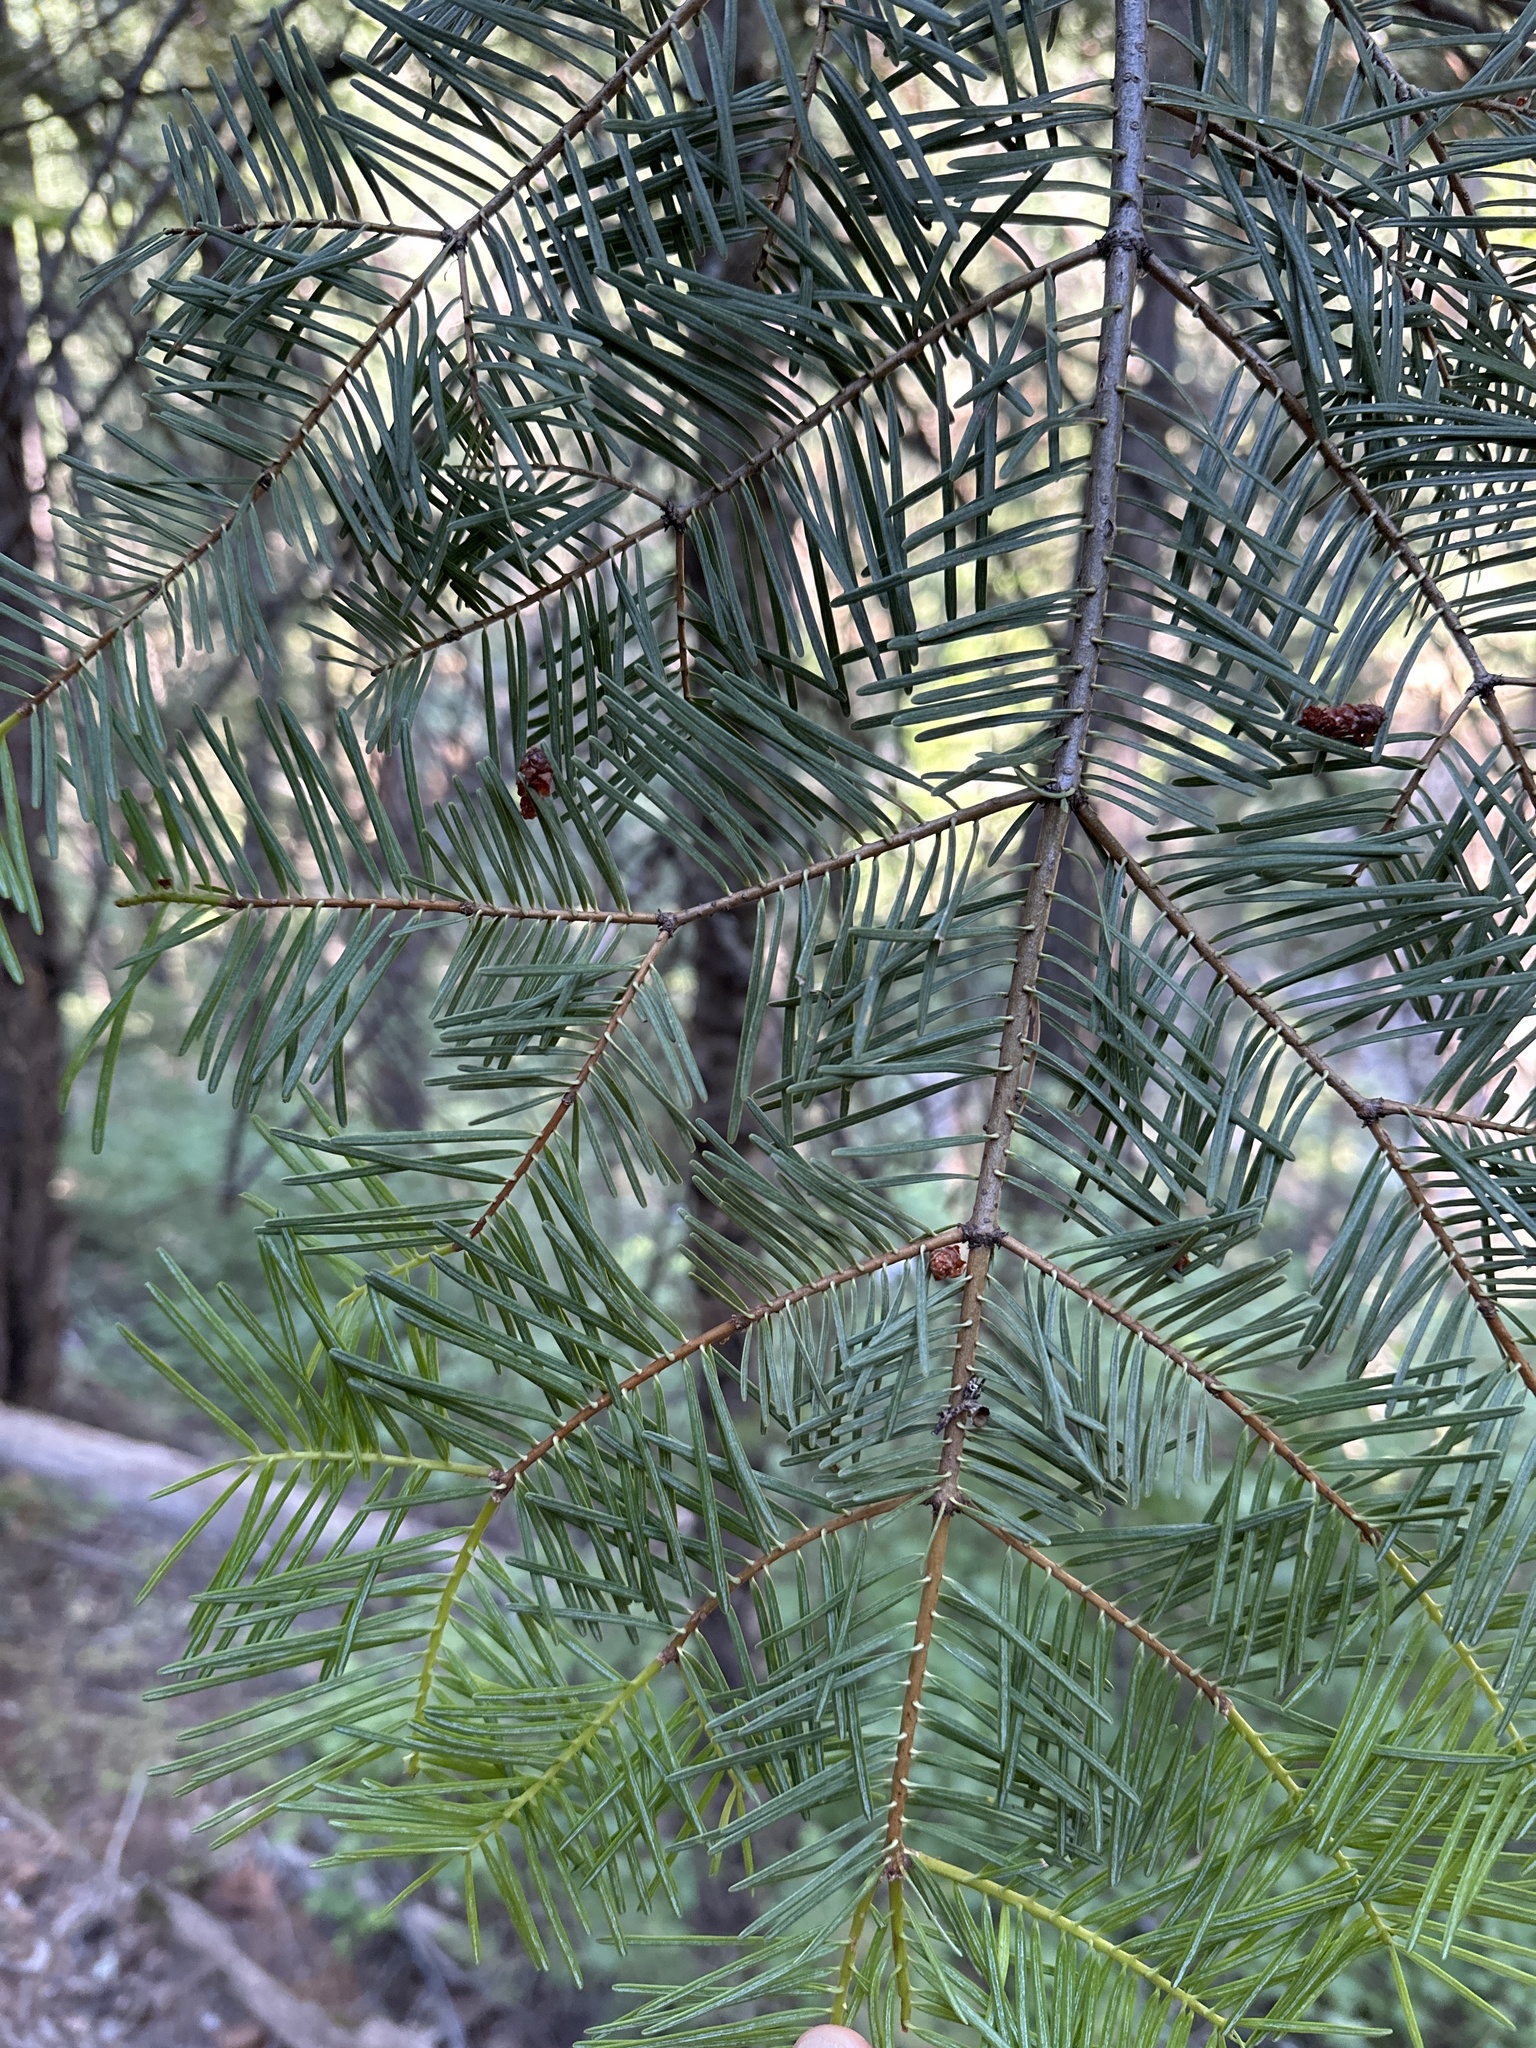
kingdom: Plantae
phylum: Tracheophyta
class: Pinopsida
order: Pinales
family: Pinaceae
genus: Abies
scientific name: Abies concolor
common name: Colorado fir
